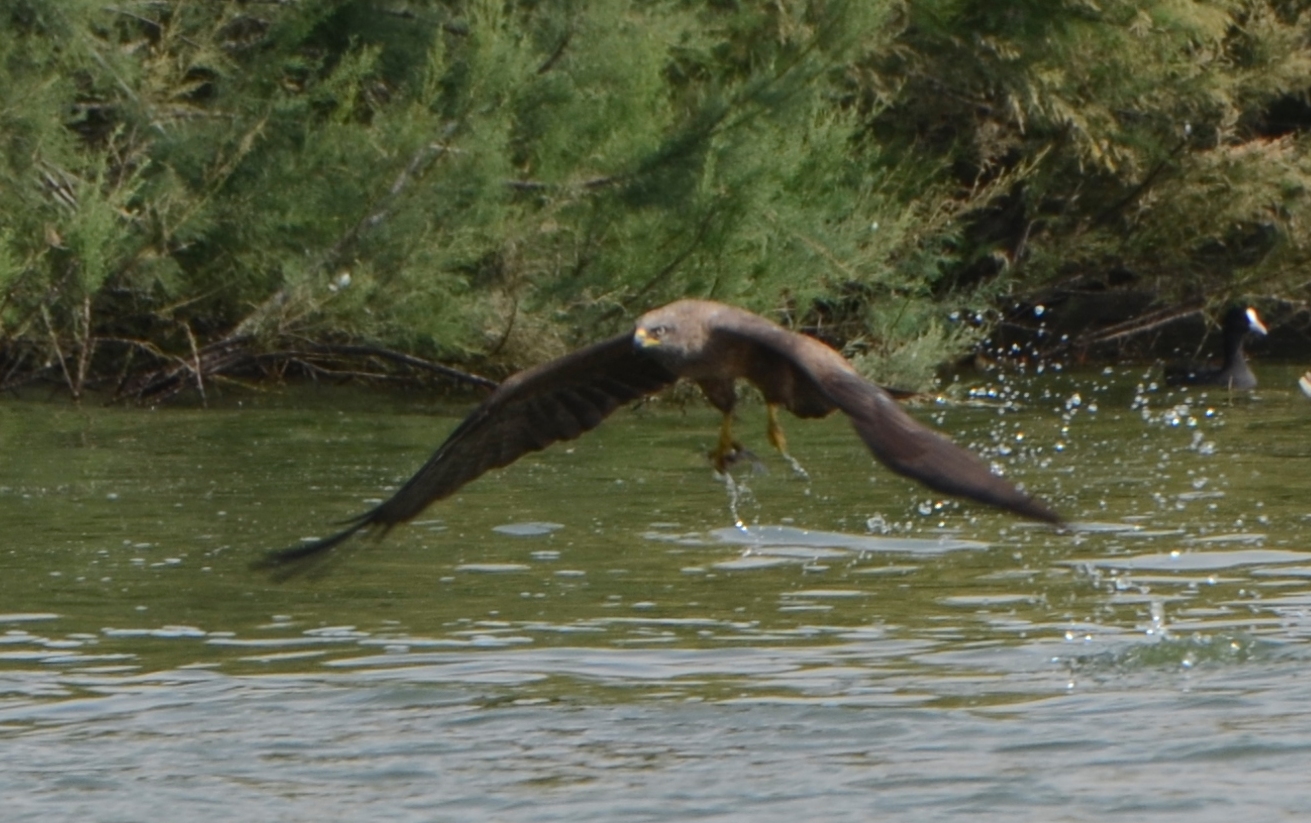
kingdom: Animalia
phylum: Chordata
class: Aves
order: Accipitriformes
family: Accipitridae
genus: Milvus
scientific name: Milvus migrans
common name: Black kite
